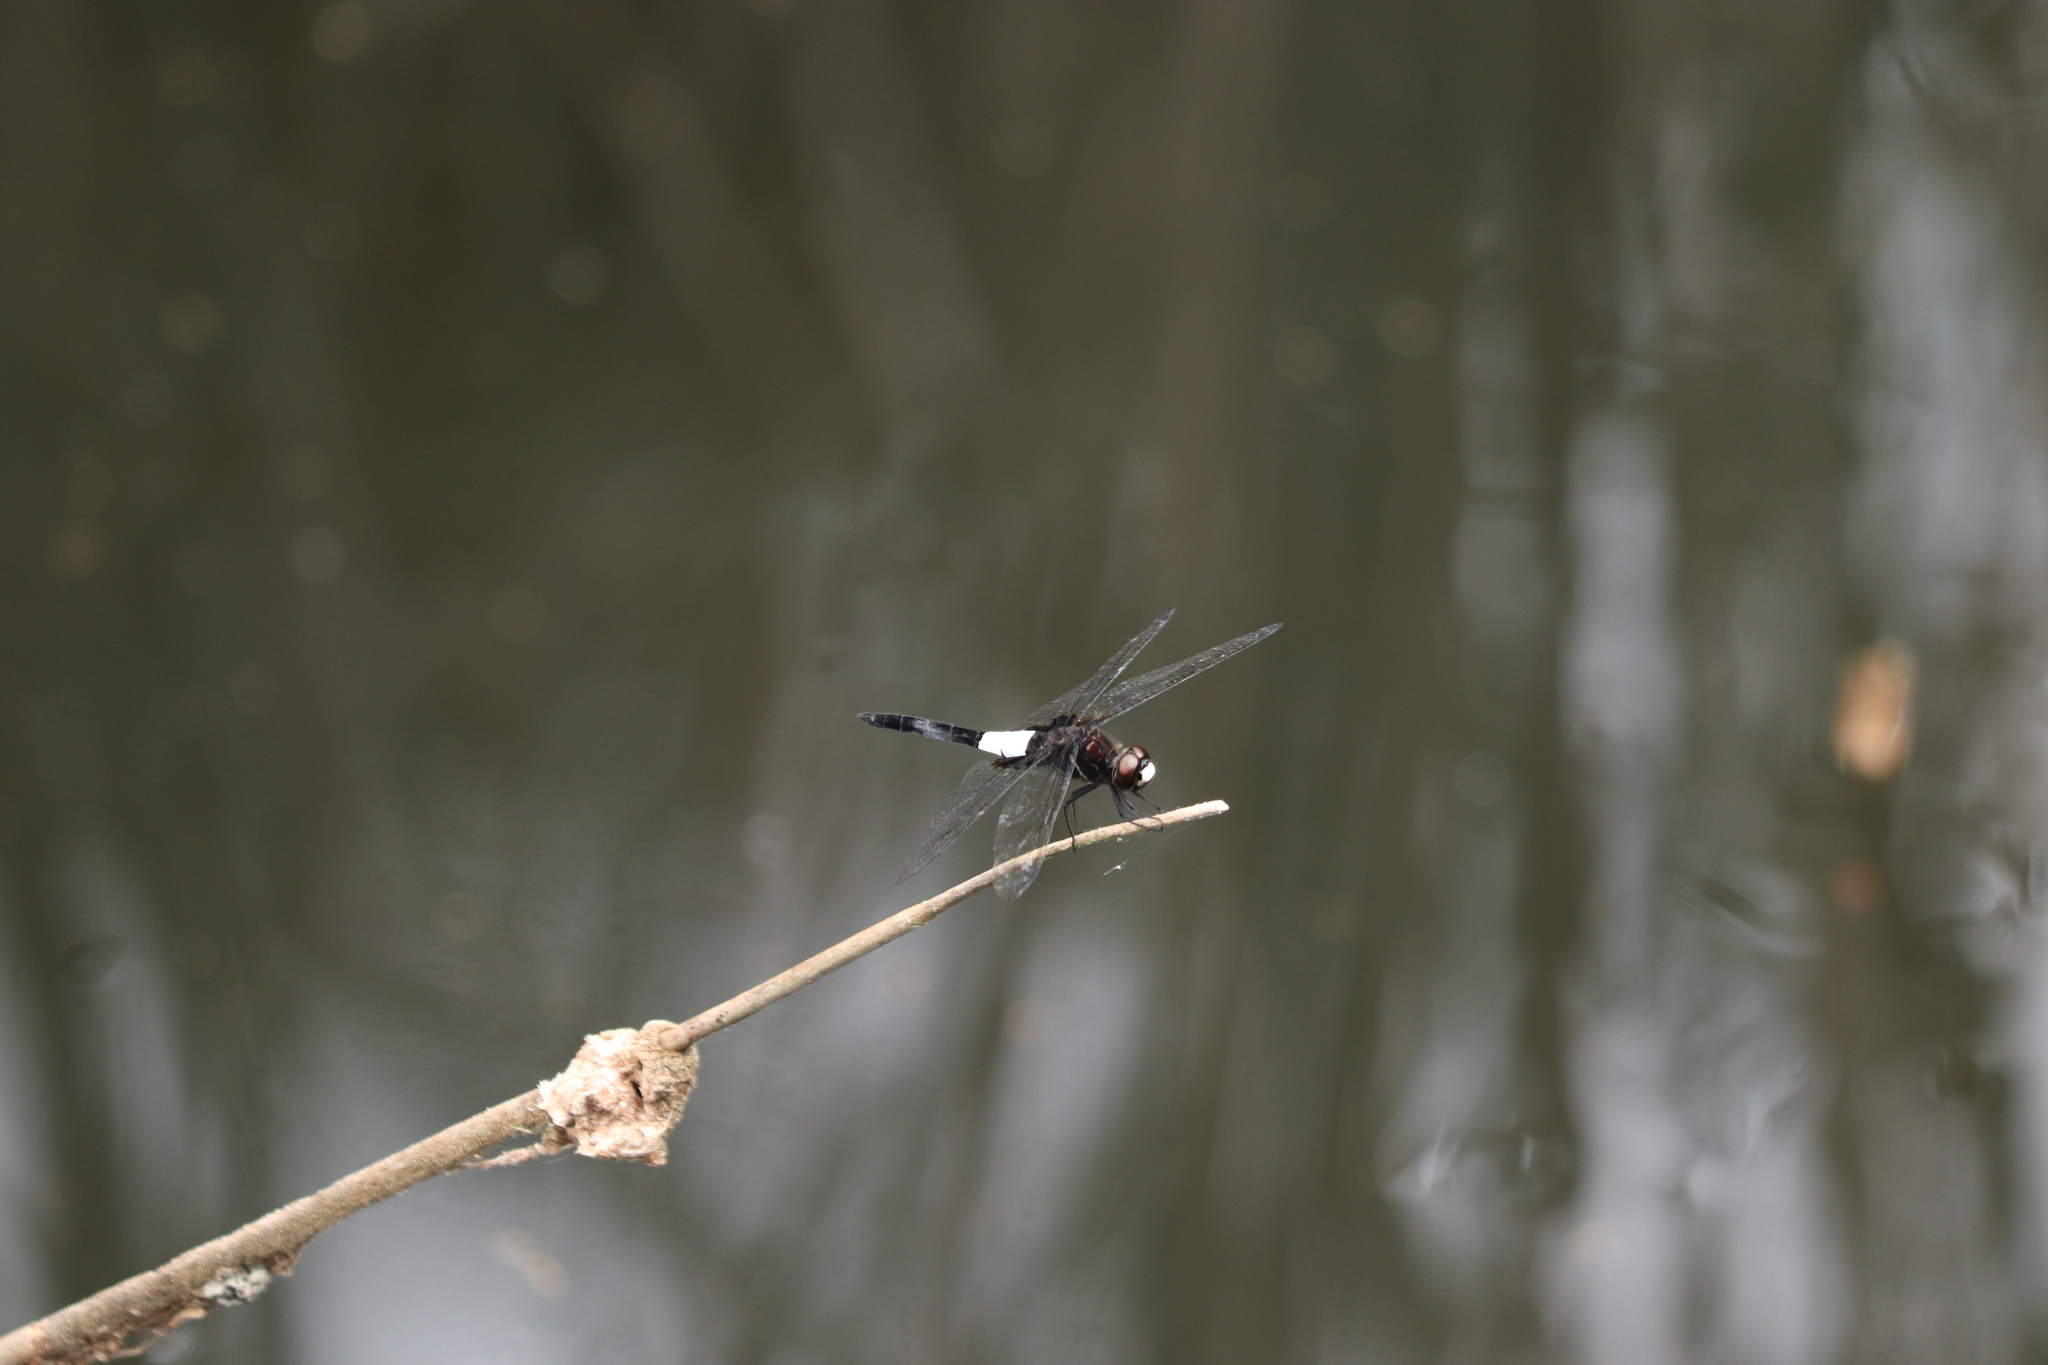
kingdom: Animalia
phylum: Arthropoda
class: Insecta
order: Odonata
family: Libellulidae
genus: Pseudothemis
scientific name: Pseudothemis zonata
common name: Pied skimmer
